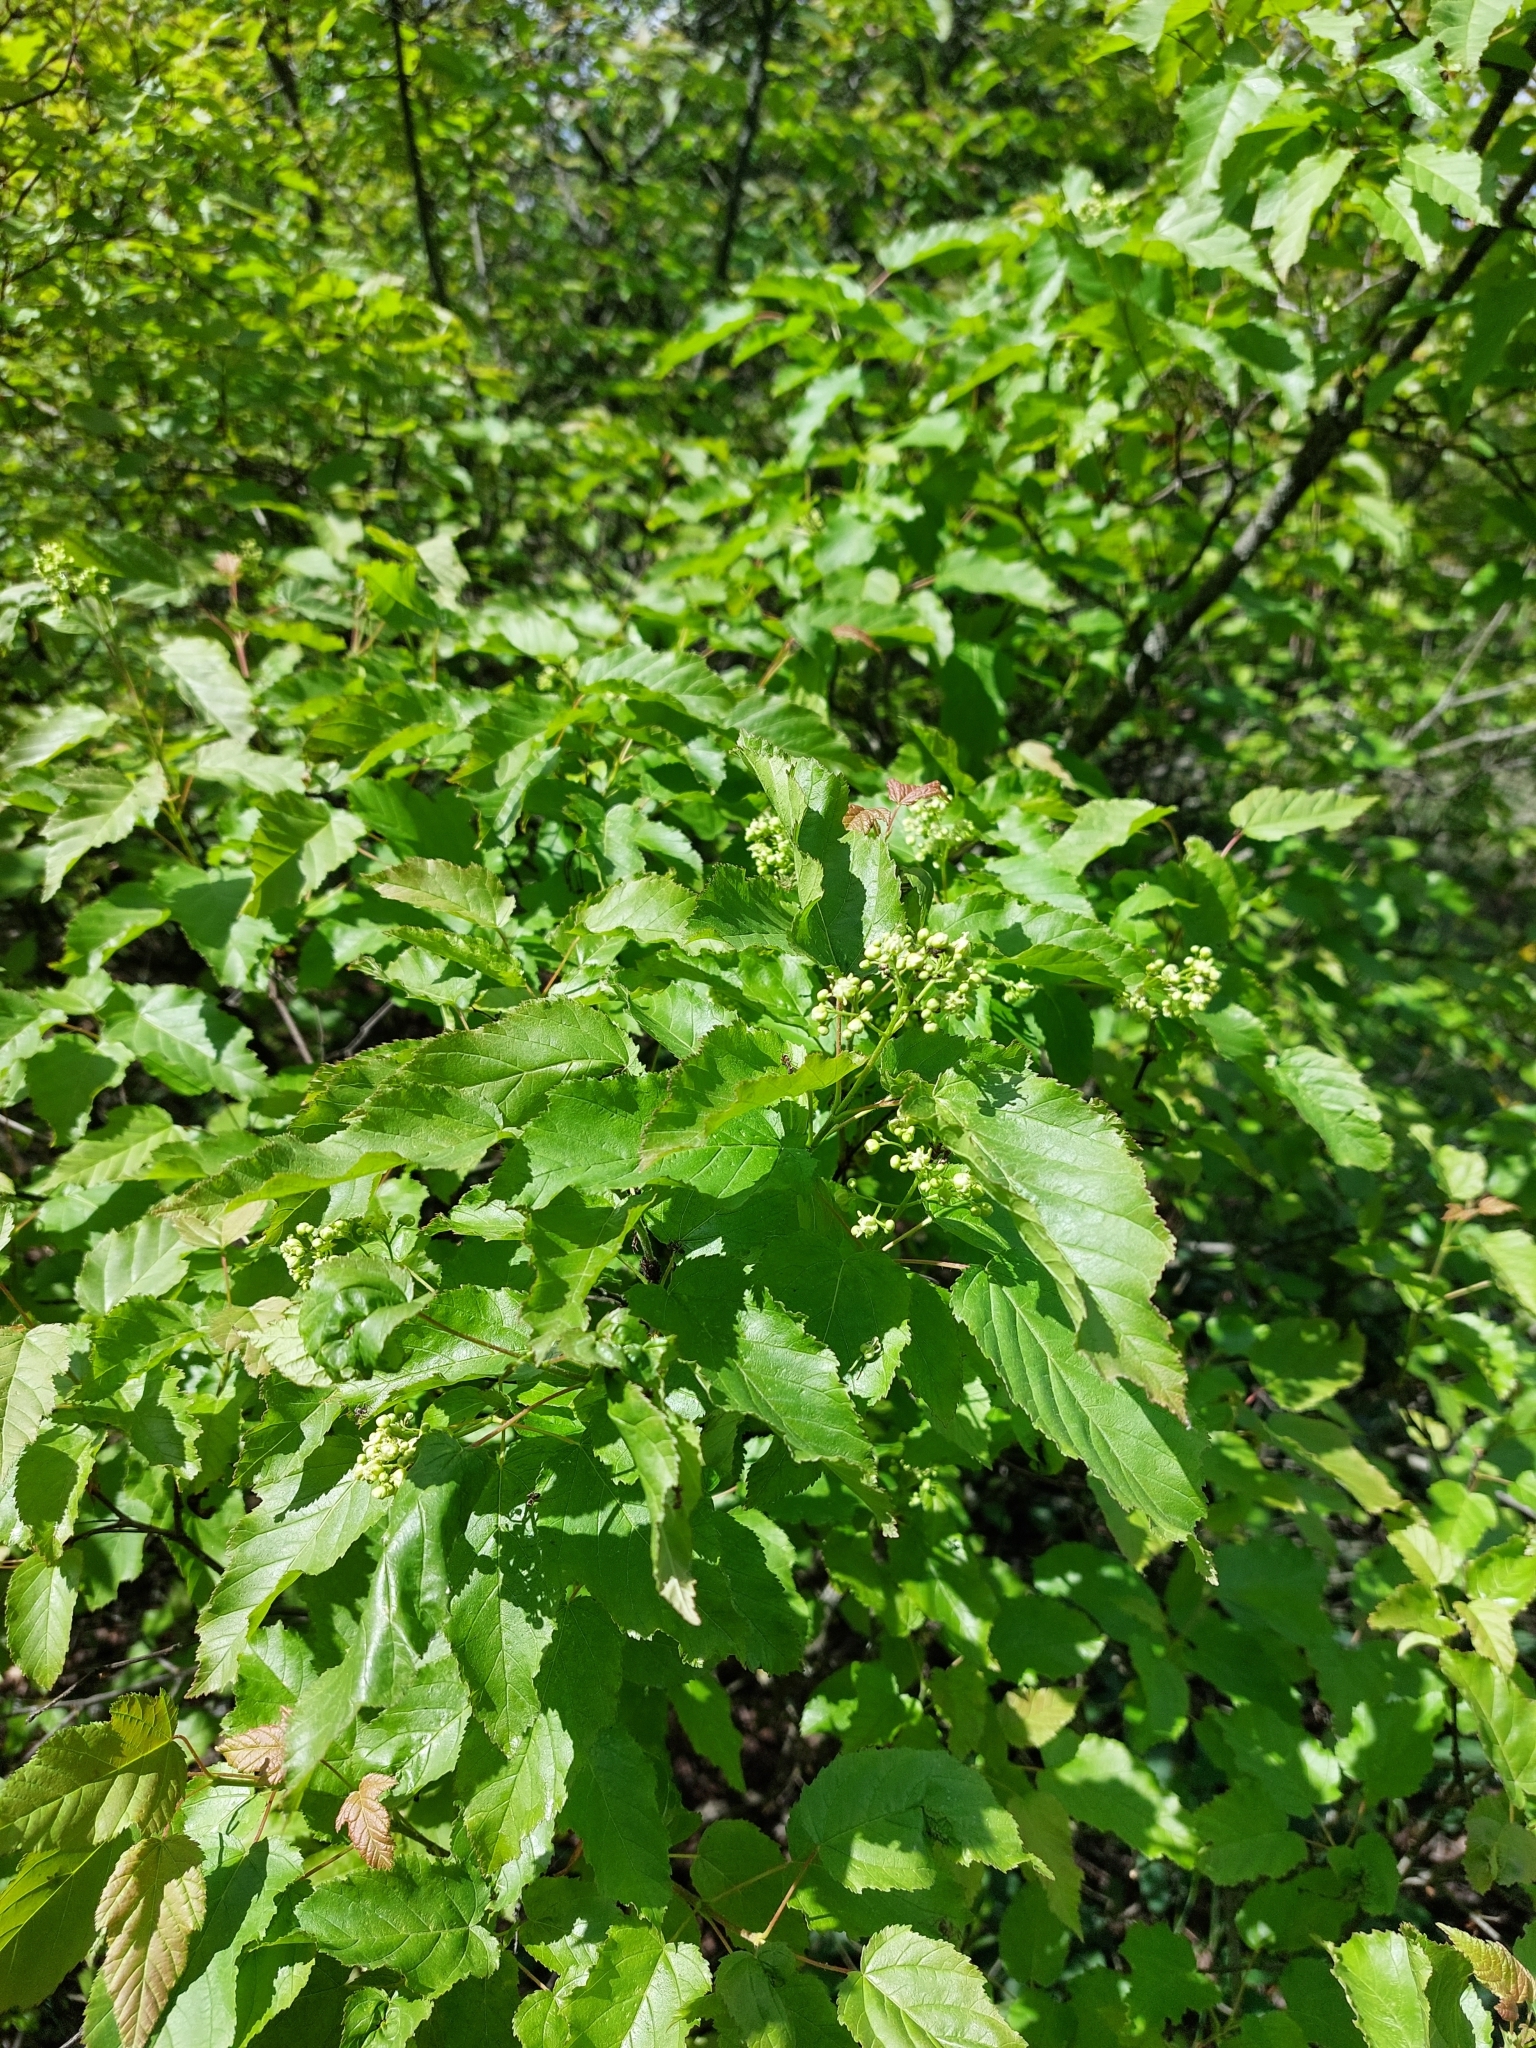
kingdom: Plantae
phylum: Tracheophyta
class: Magnoliopsida
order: Sapindales
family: Sapindaceae
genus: Acer
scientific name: Acer tataricum
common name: Tartar maple
